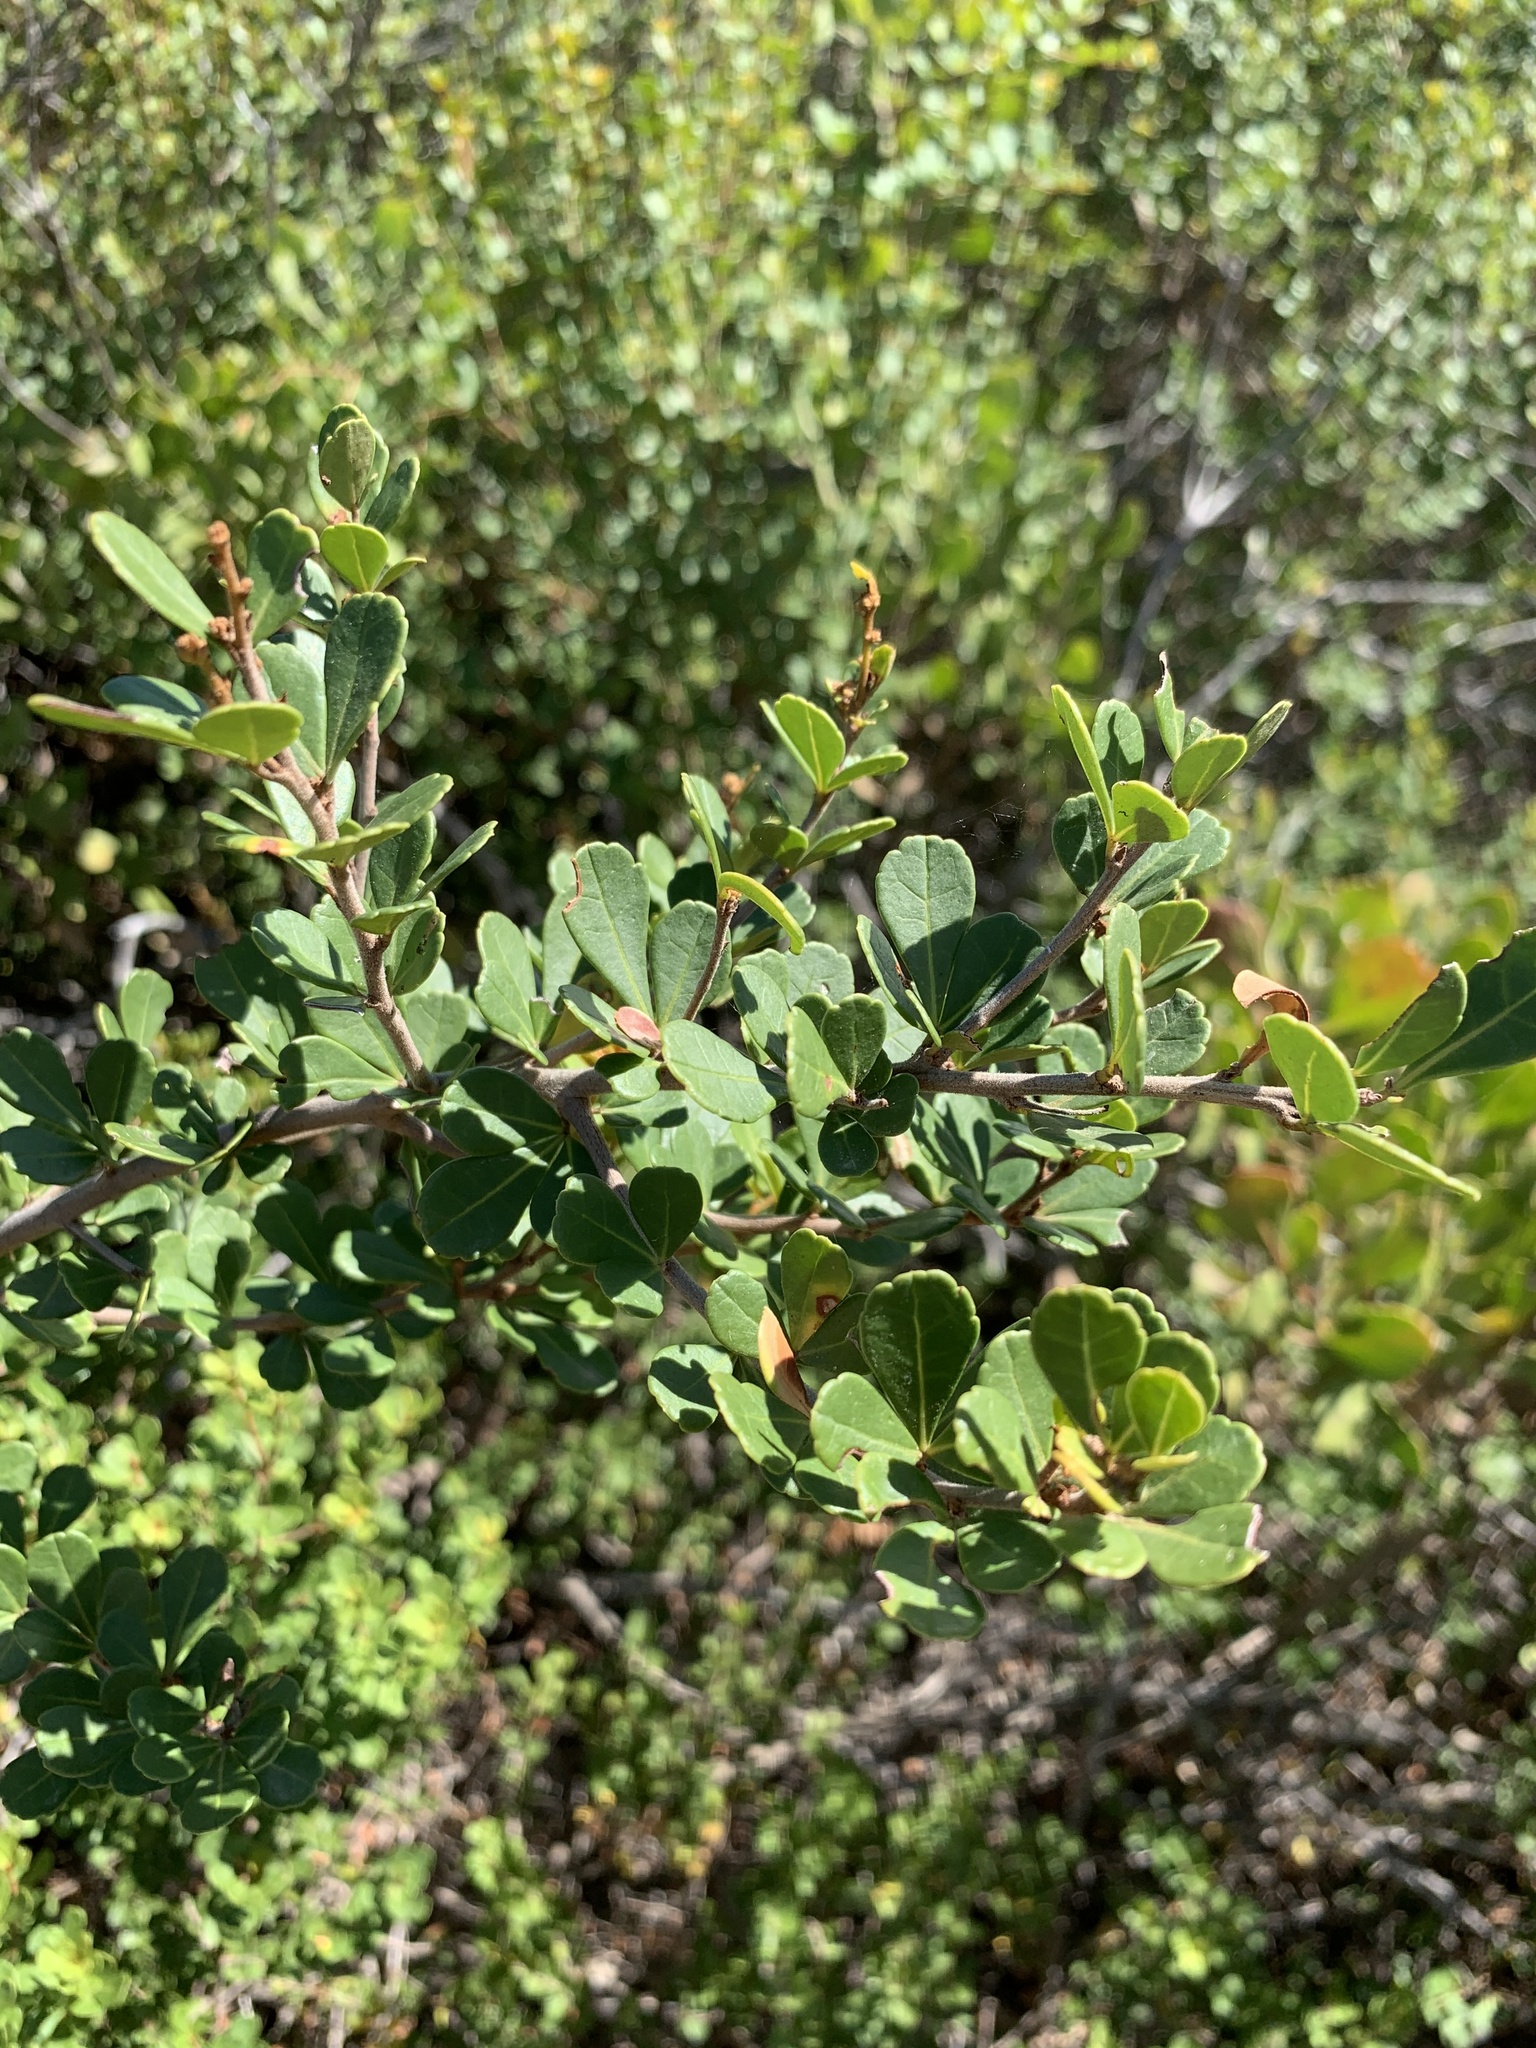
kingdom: Plantae
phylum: Tracheophyta
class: Magnoliopsida
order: Sapindales
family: Anacardiaceae
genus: Searsia
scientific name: Searsia crenata
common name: Crowberry
